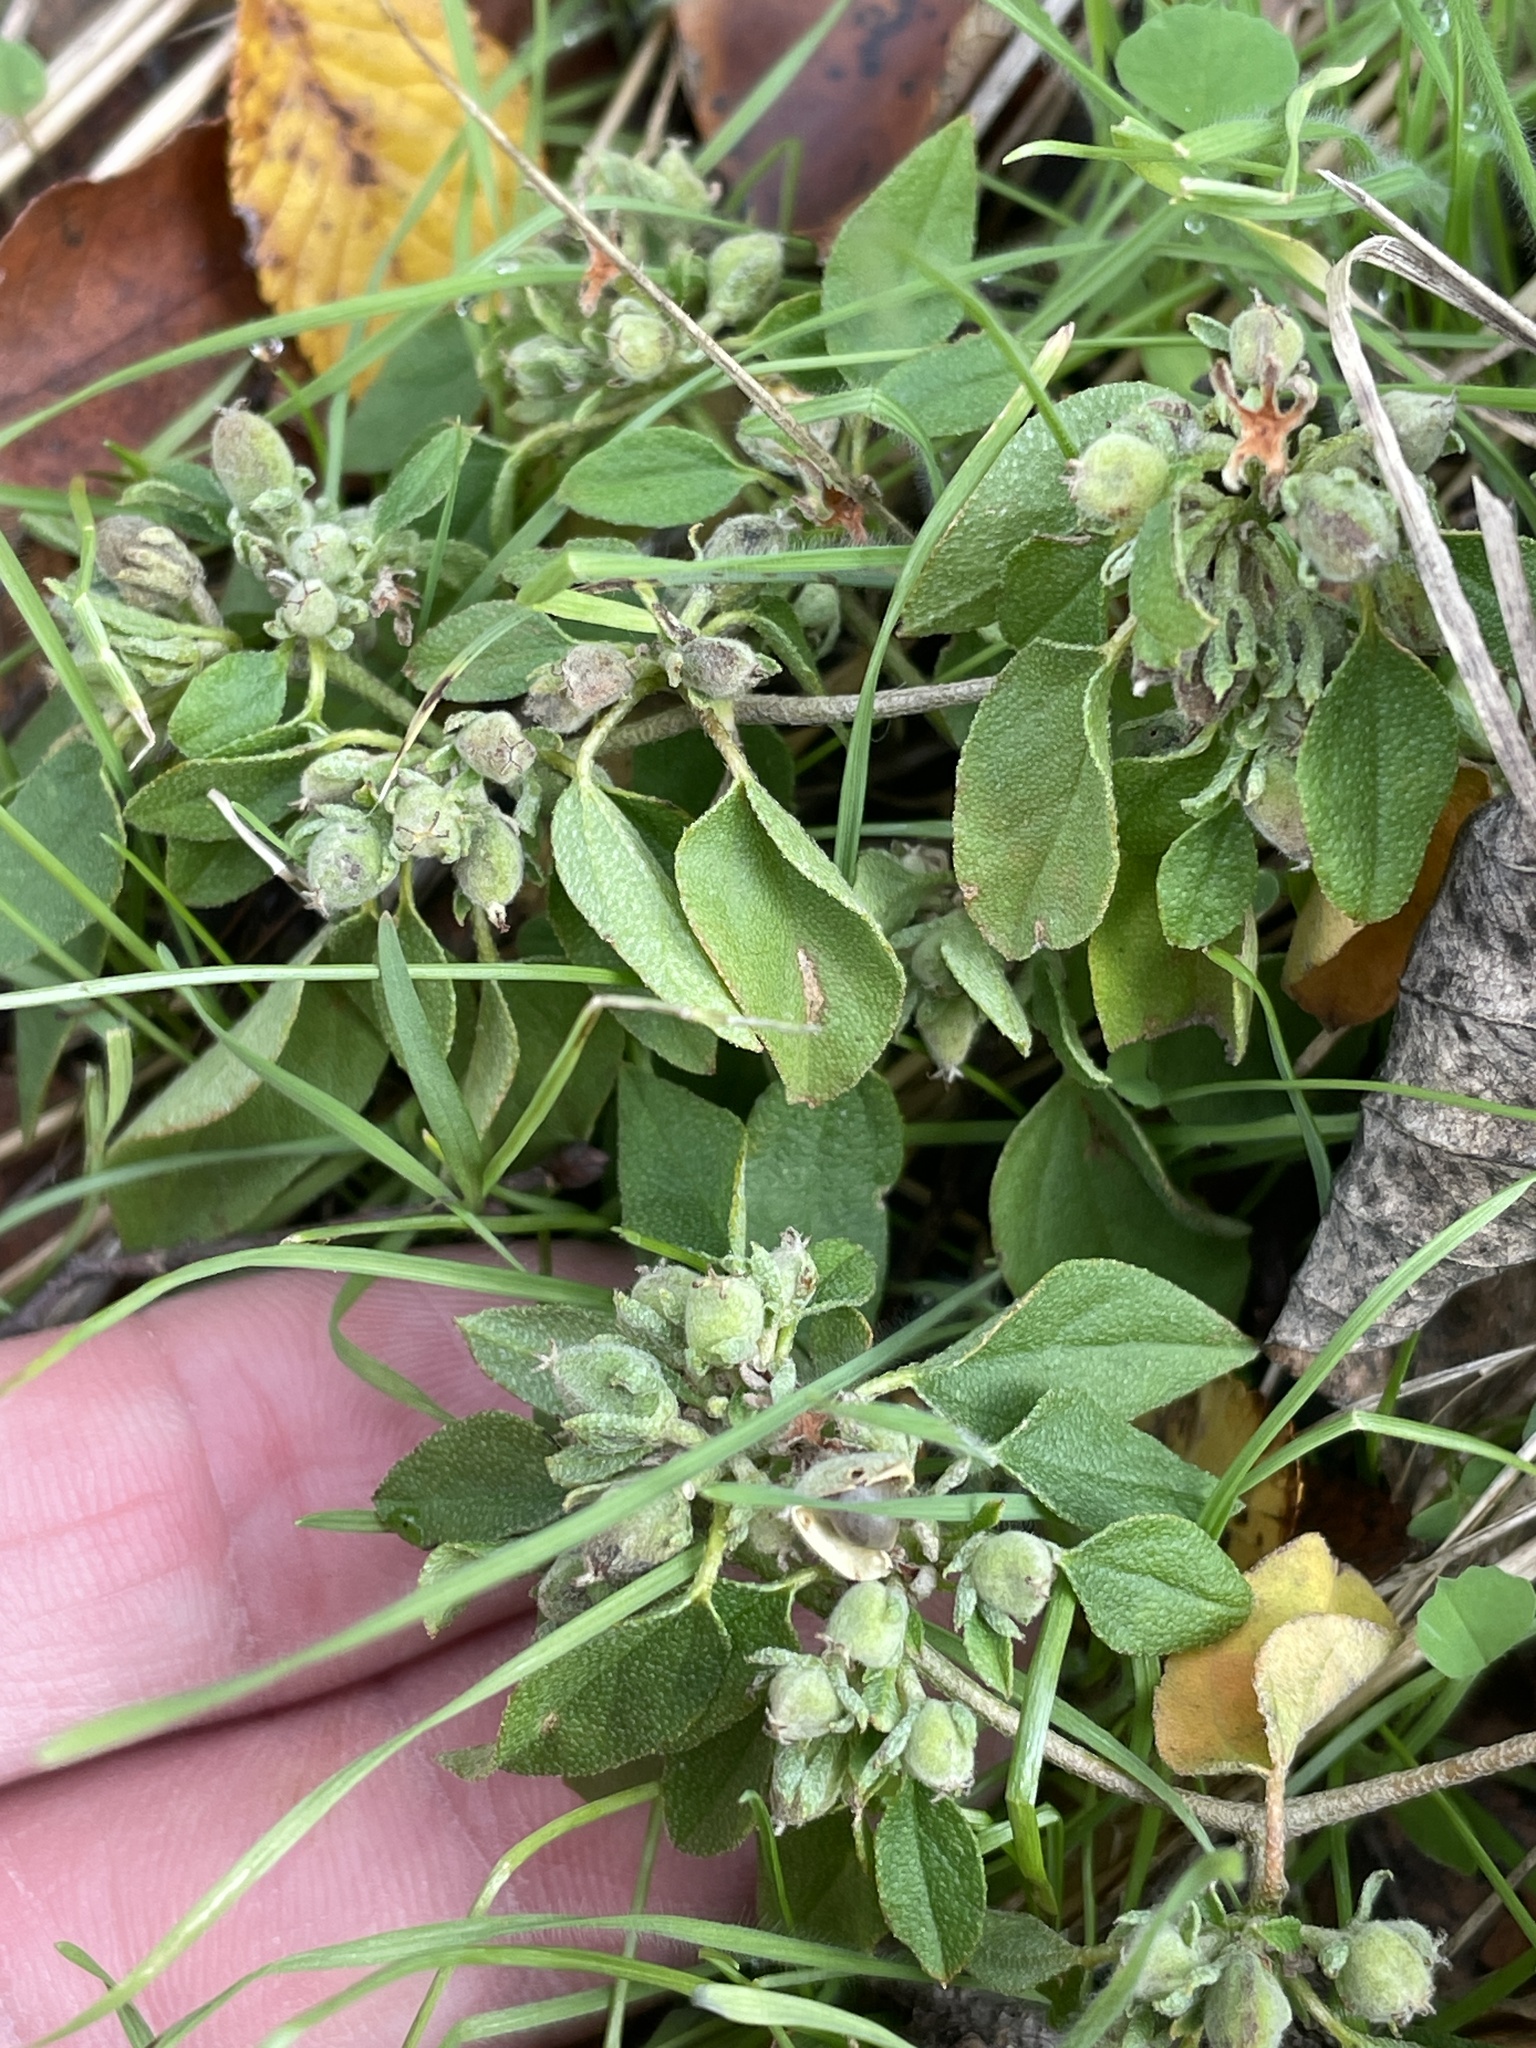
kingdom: Plantae
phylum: Tracheophyta
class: Magnoliopsida
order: Malpighiales
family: Euphorbiaceae
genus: Croton
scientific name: Croton monanthogynus
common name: One-seed croton
